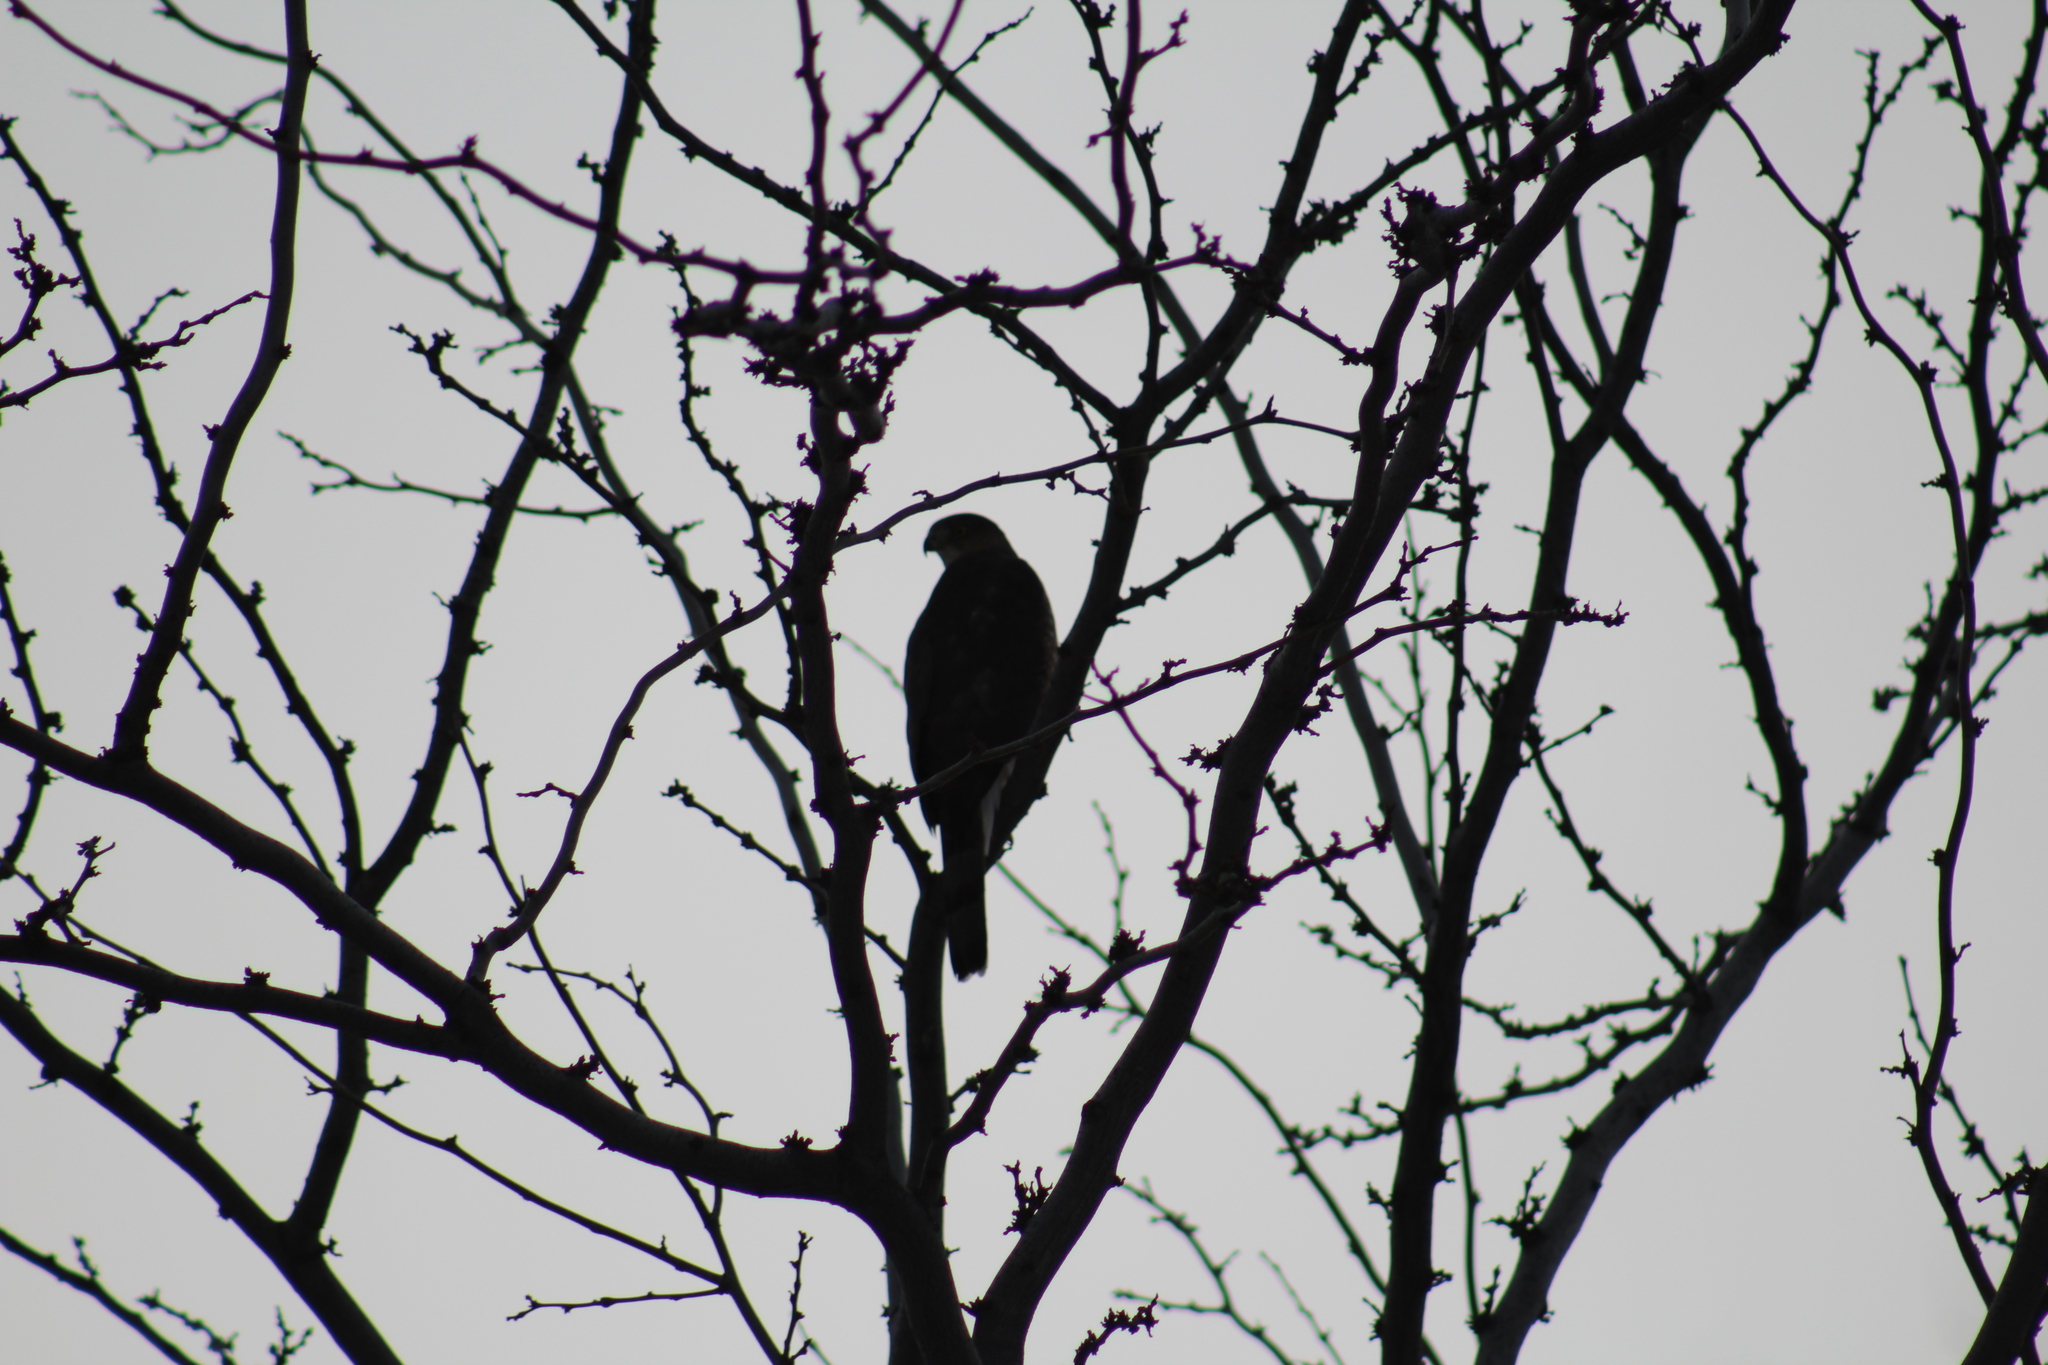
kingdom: Animalia
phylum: Chordata
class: Aves
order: Accipitriformes
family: Accipitridae
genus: Accipiter
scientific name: Accipiter cooperii
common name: Cooper's hawk
